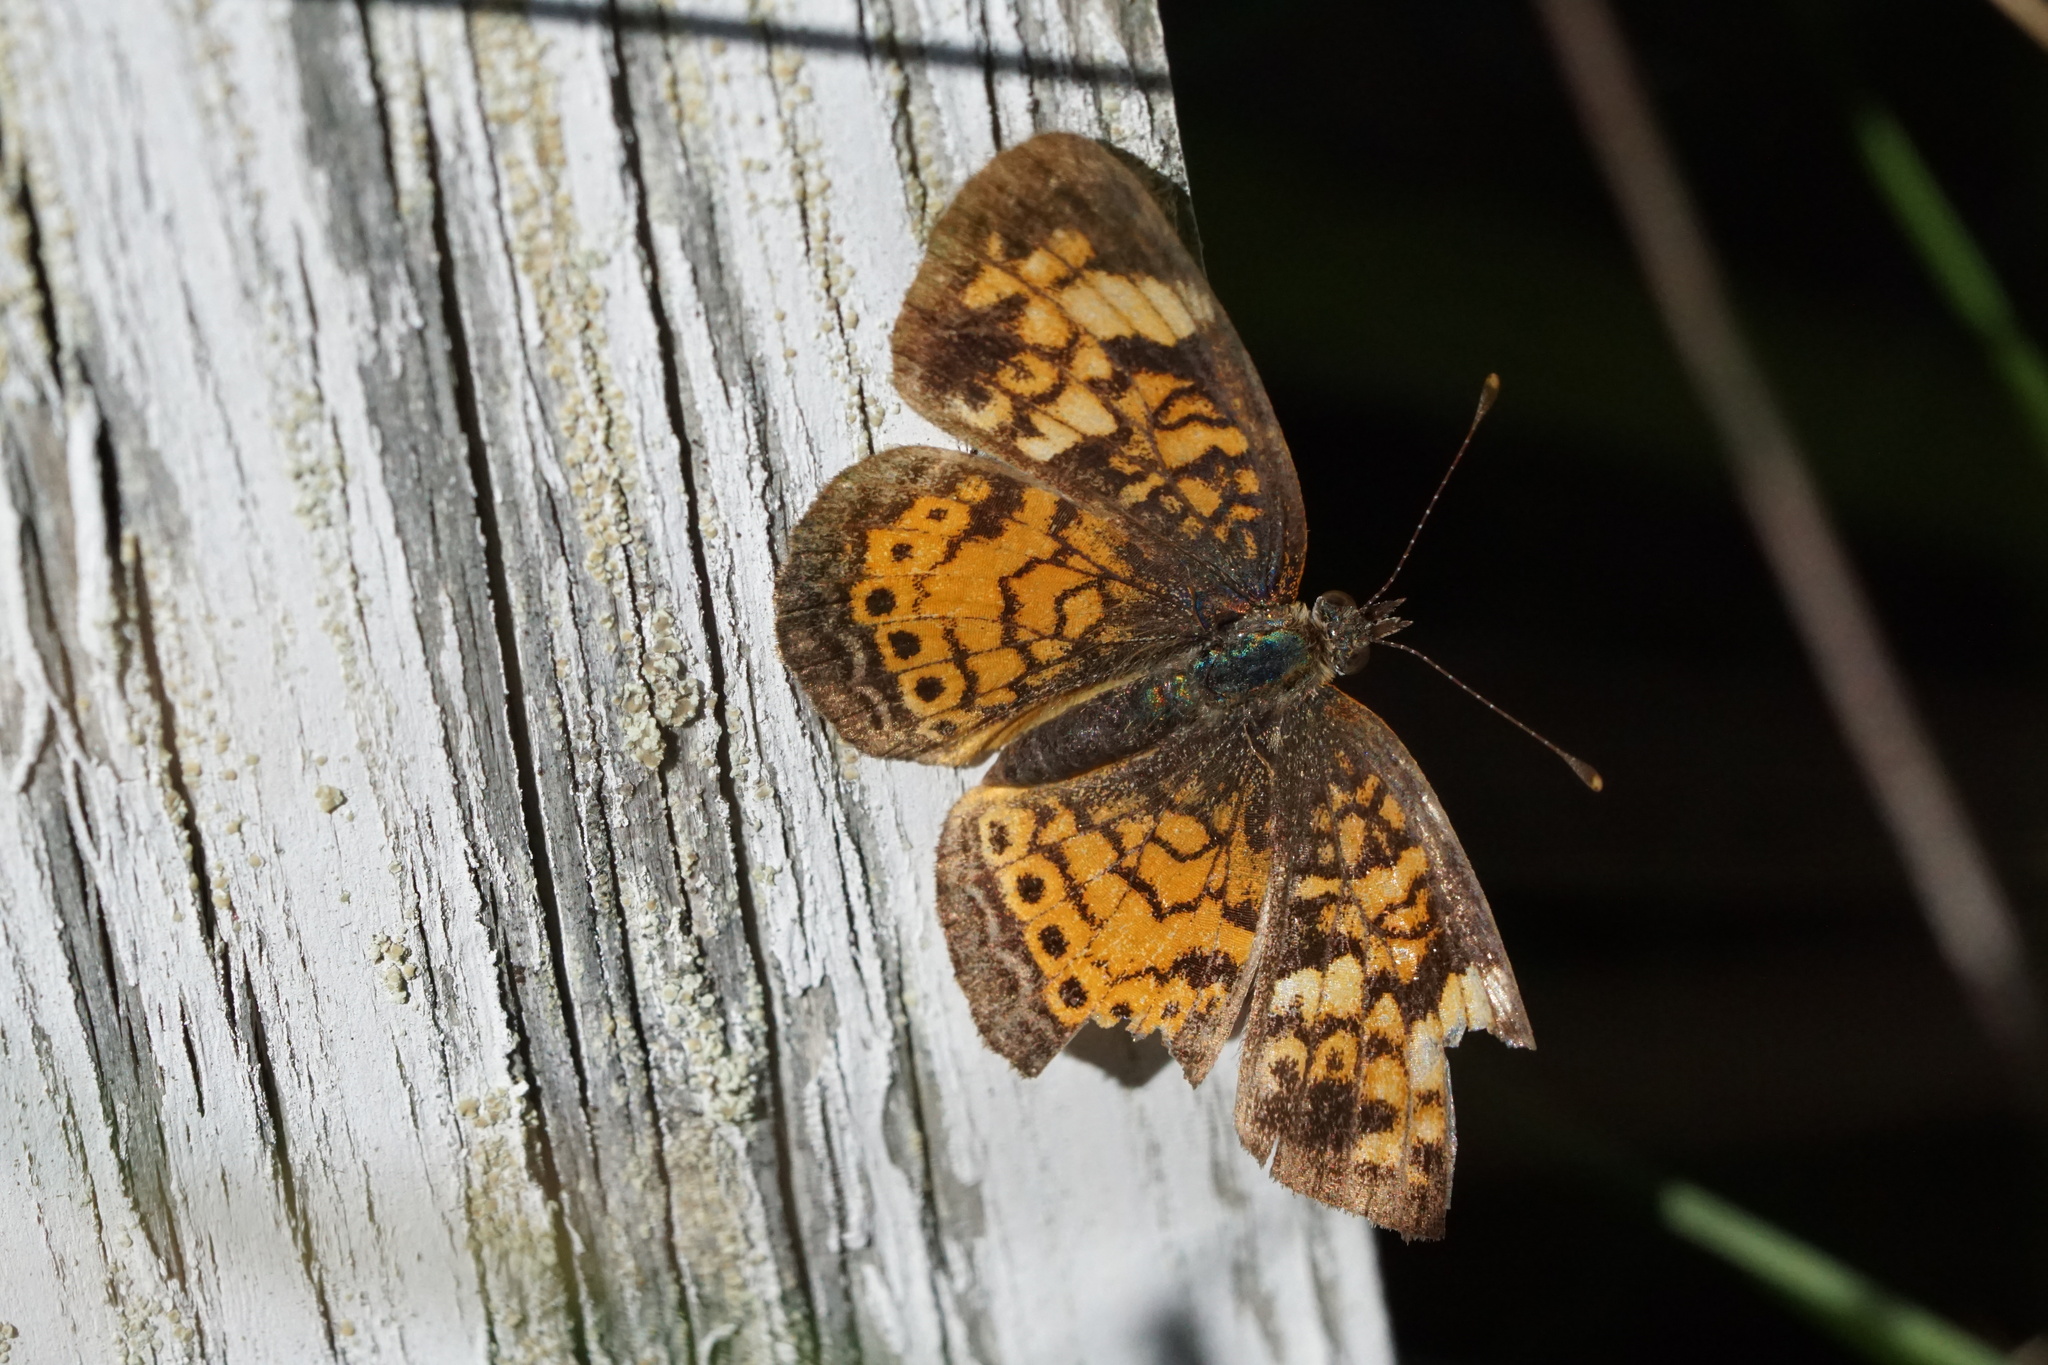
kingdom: Animalia
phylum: Arthropoda
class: Insecta
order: Lepidoptera
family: Nymphalidae
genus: Phyciodes
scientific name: Phyciodes tharos
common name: Pearl crescent
